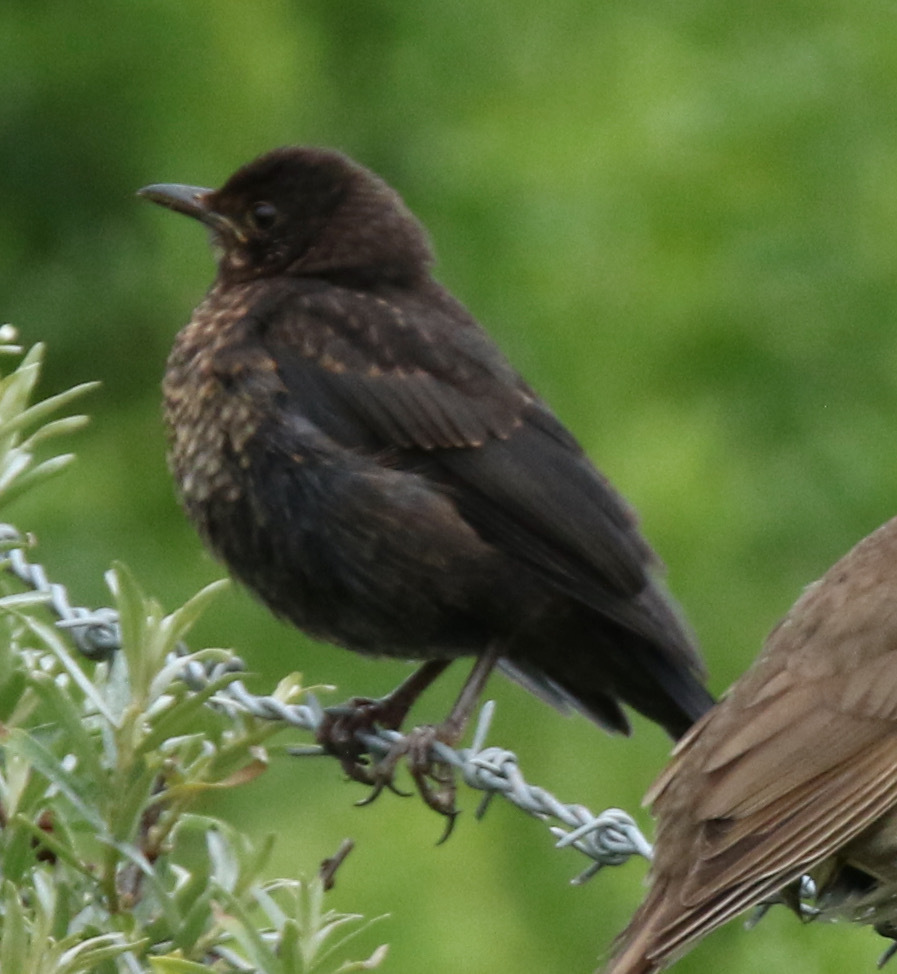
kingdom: Animalia
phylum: Chordata
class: Aves
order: Passeriformes
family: Turdidae
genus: Turdus
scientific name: Turdus merula
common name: Common blackbird
